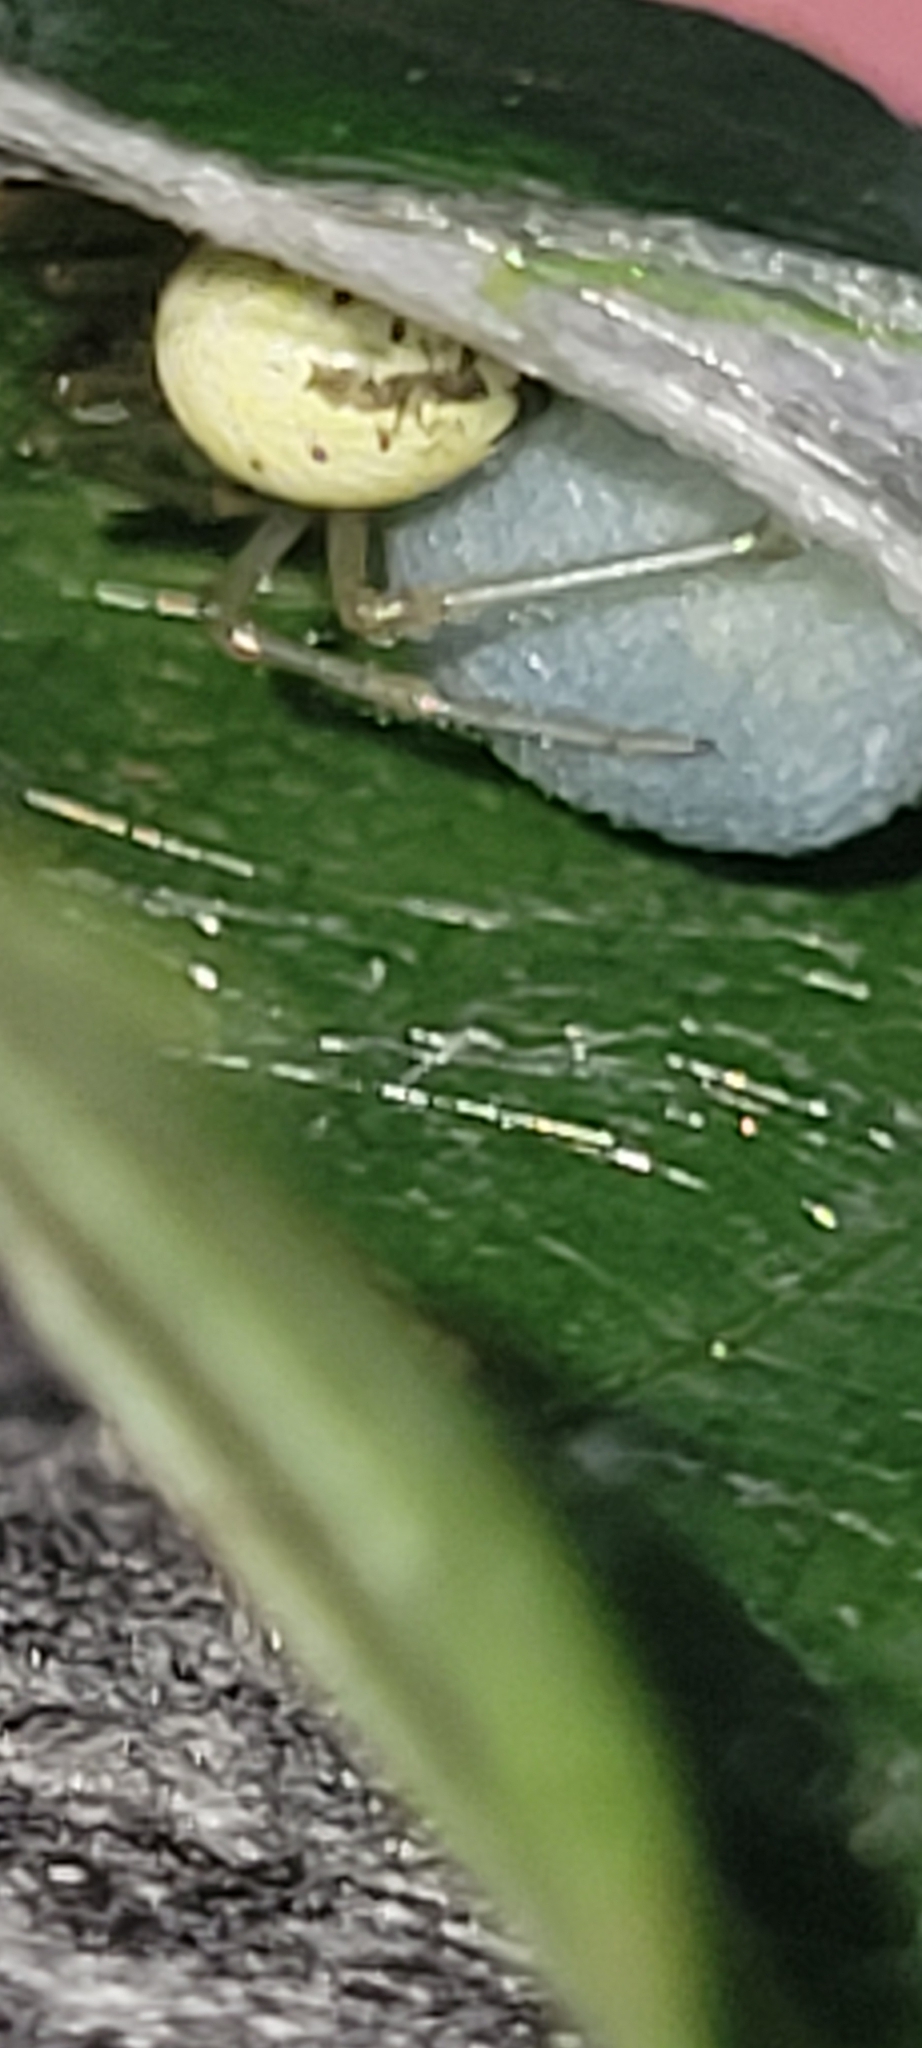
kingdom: Animalia
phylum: Arthropoda
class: Arachnida
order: Araneae
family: Theridiidae
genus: Enoplognatha
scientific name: Enoplognatha ovata
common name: Common candy-striped spider
